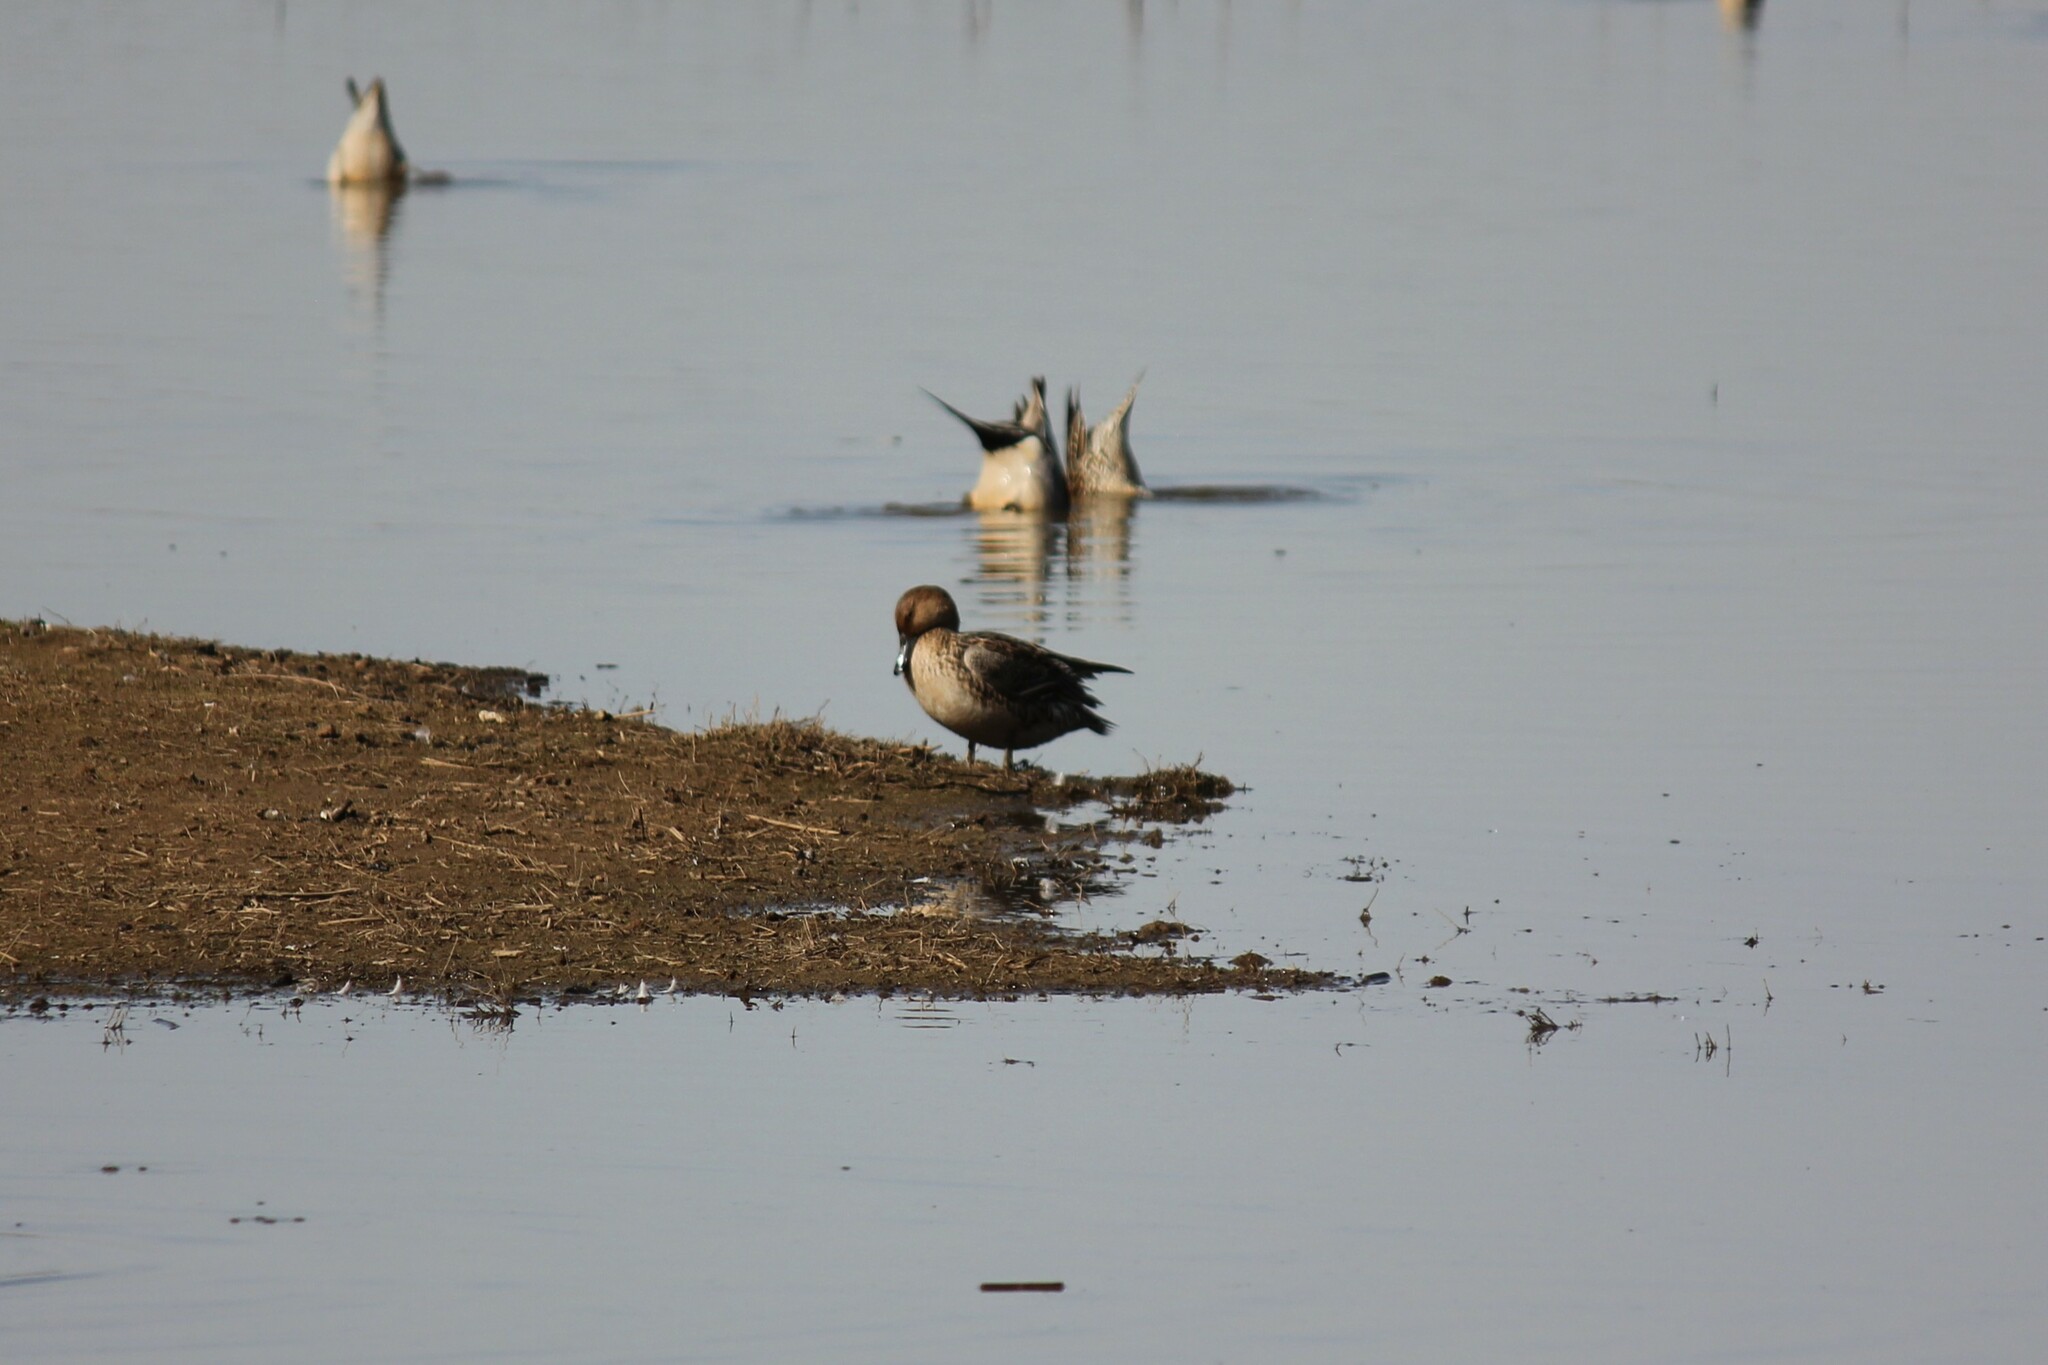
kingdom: Animalia
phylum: Chordata
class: Aves
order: Anseriformes
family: Anatidae
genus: Anas
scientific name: Anas acuta
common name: Northern pintail
